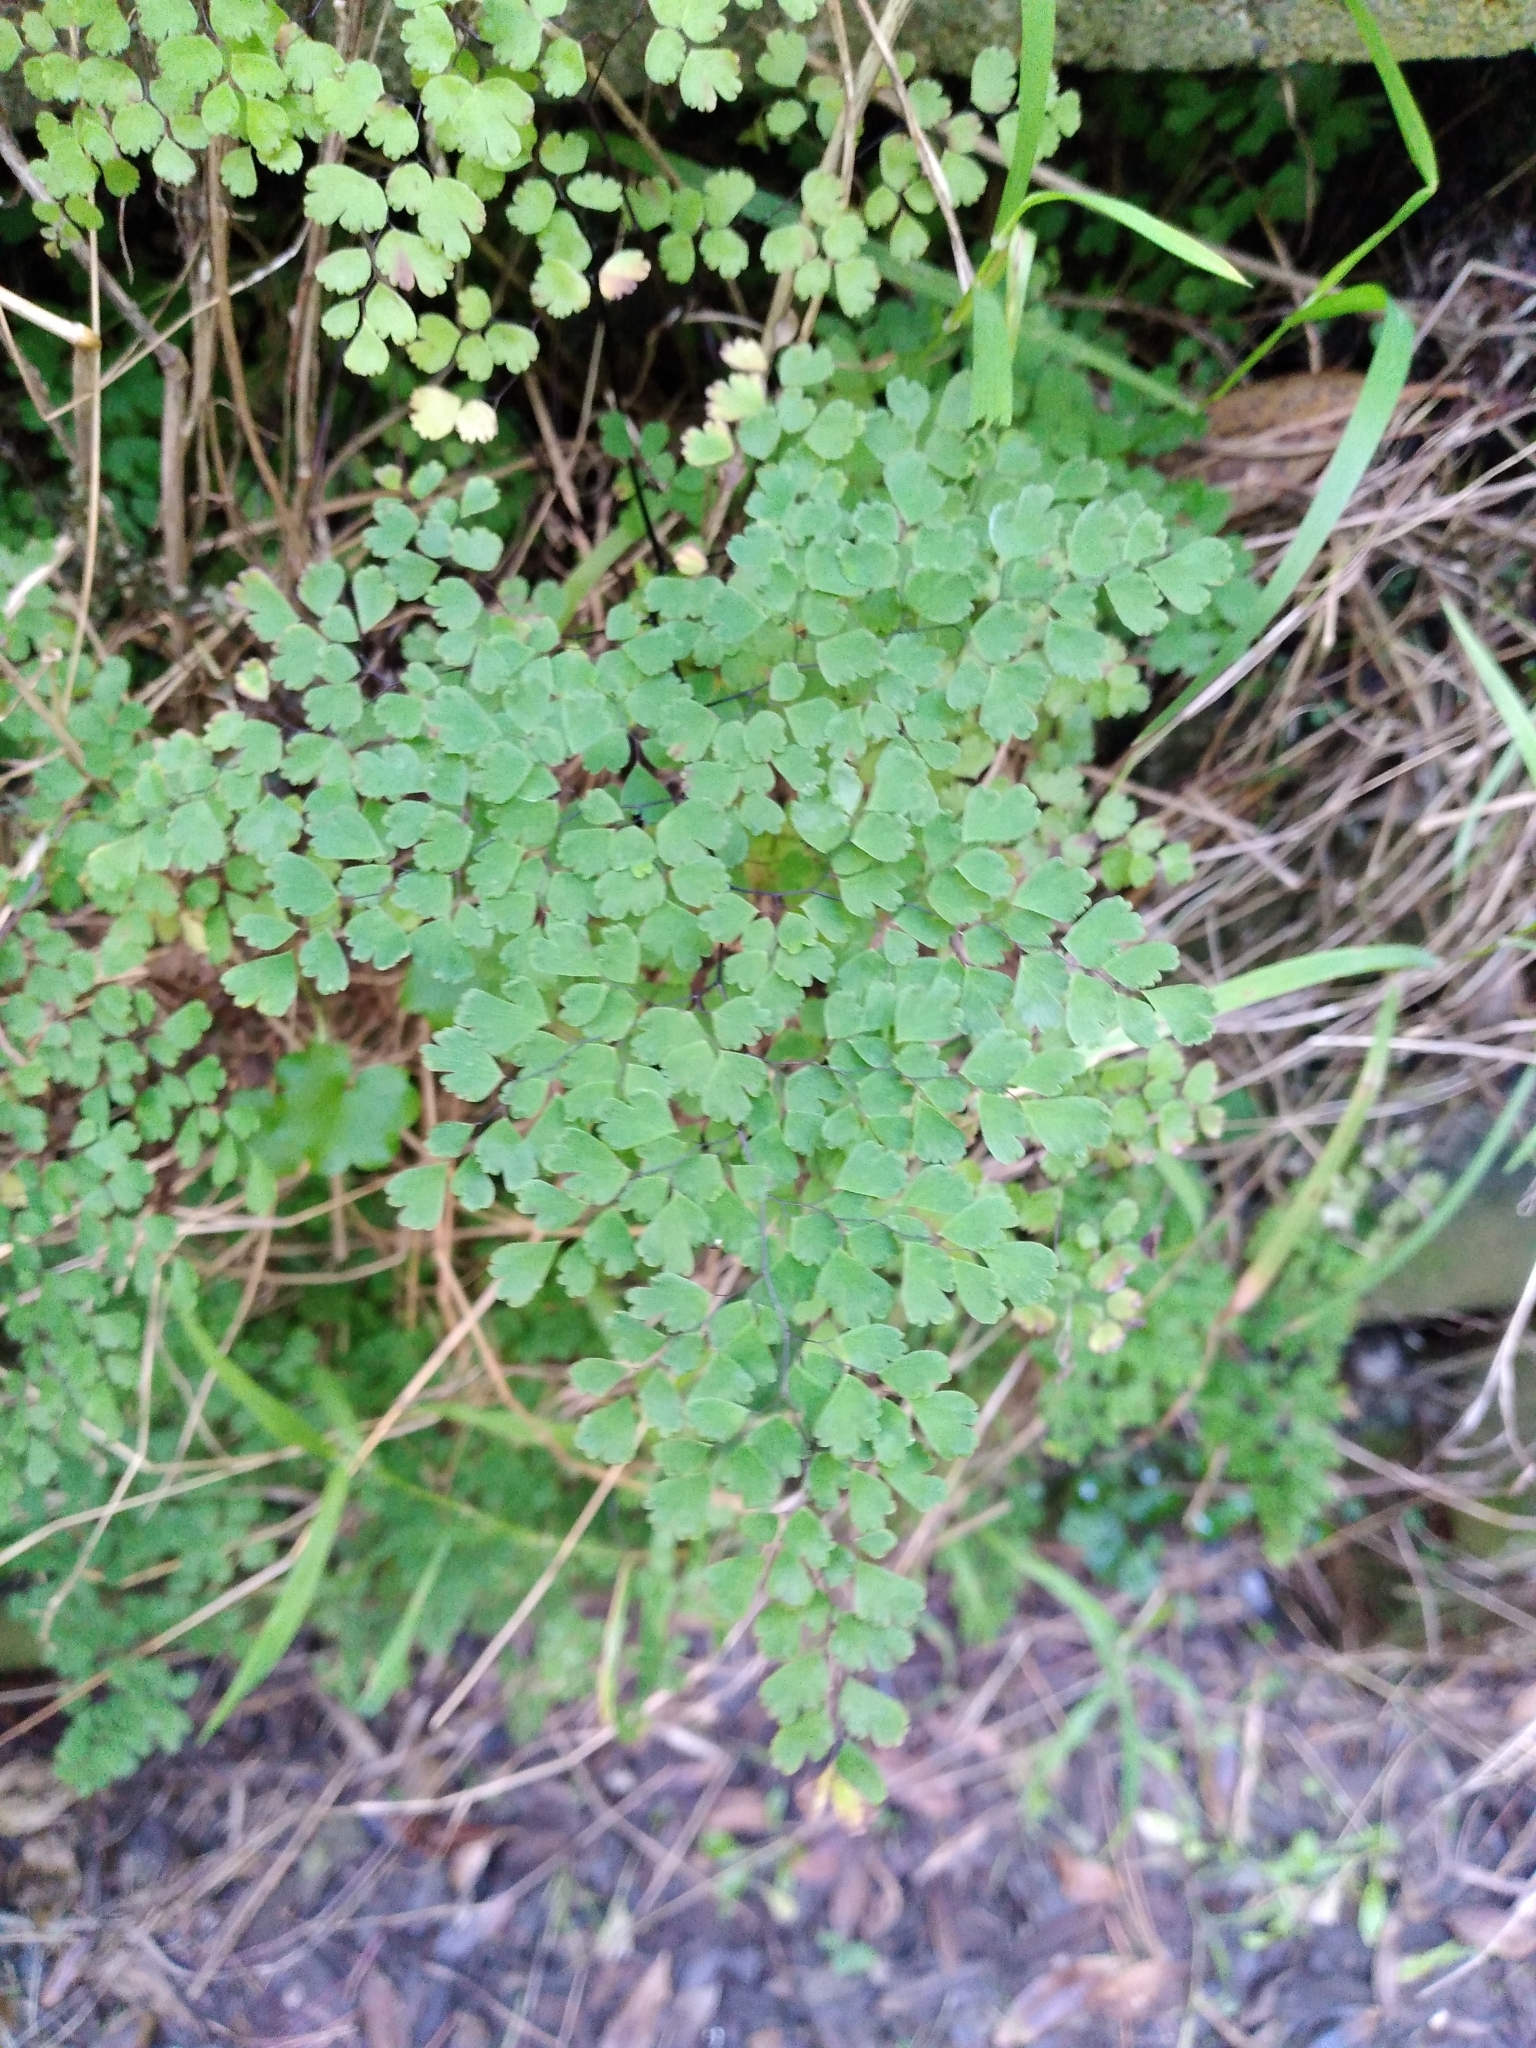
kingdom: Plantae
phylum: Tracheophyta
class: Polypodiopsida
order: Polypodiales
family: Pteridaceae
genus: Adiantum
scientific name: Adiantum raddianum
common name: Delta maidenhair fern
